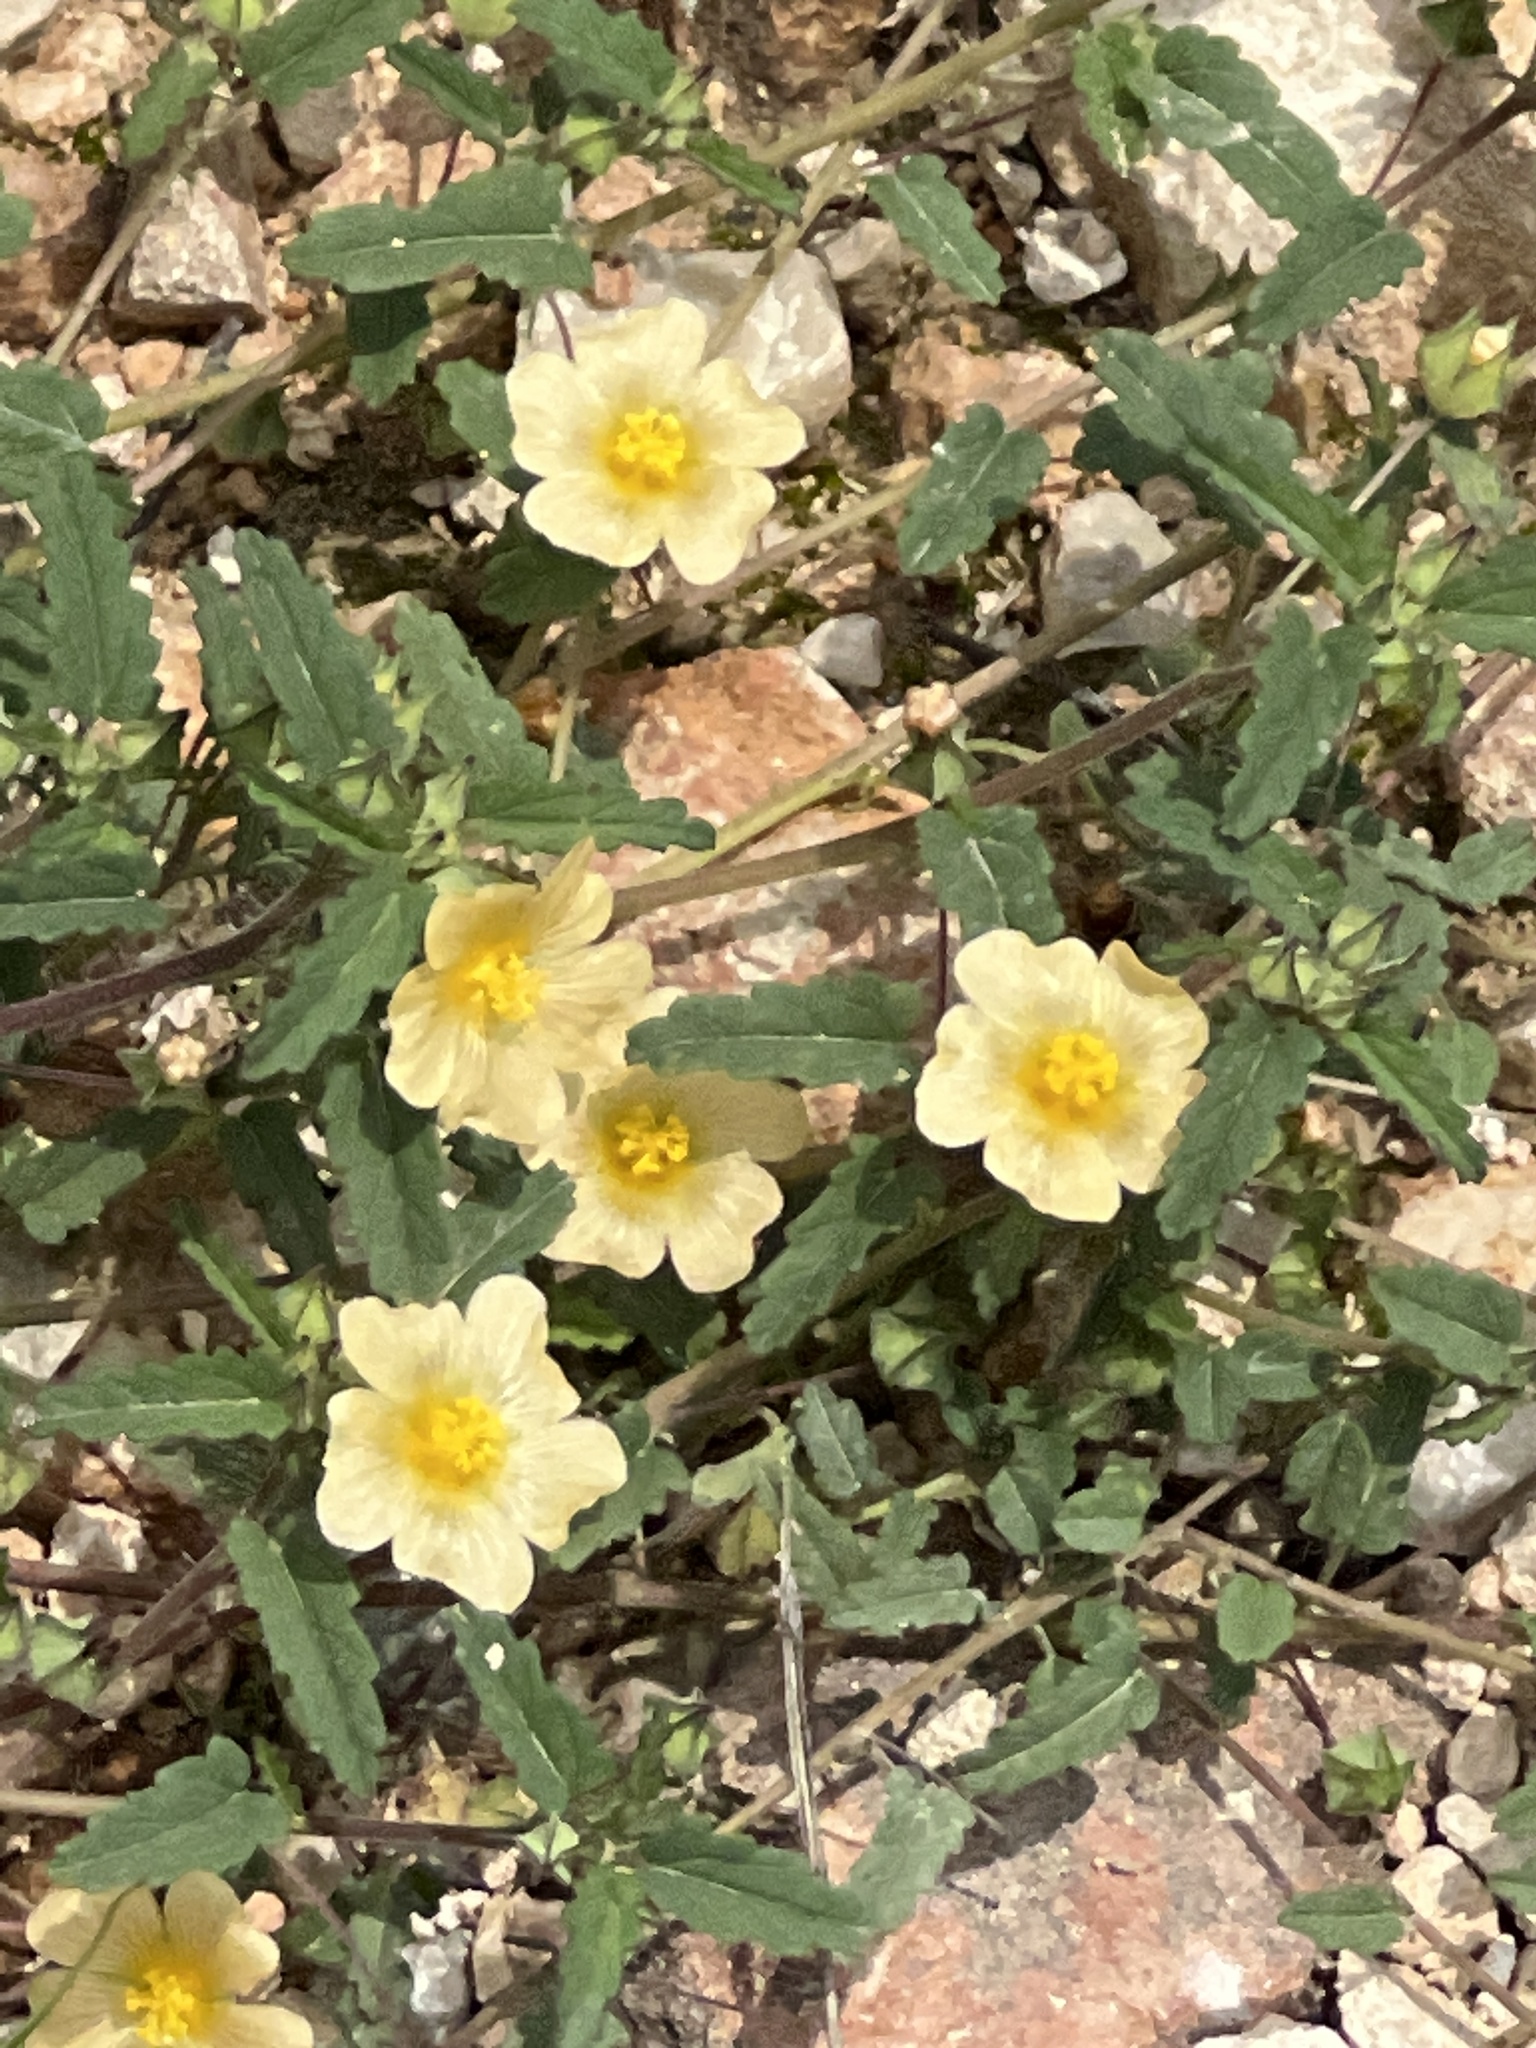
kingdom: Plantae
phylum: Tracheophyta
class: Magnoliopsida
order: Malvales
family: Malvaceae
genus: Sida
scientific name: Sida abutilifolia
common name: Spreading fanpetals
